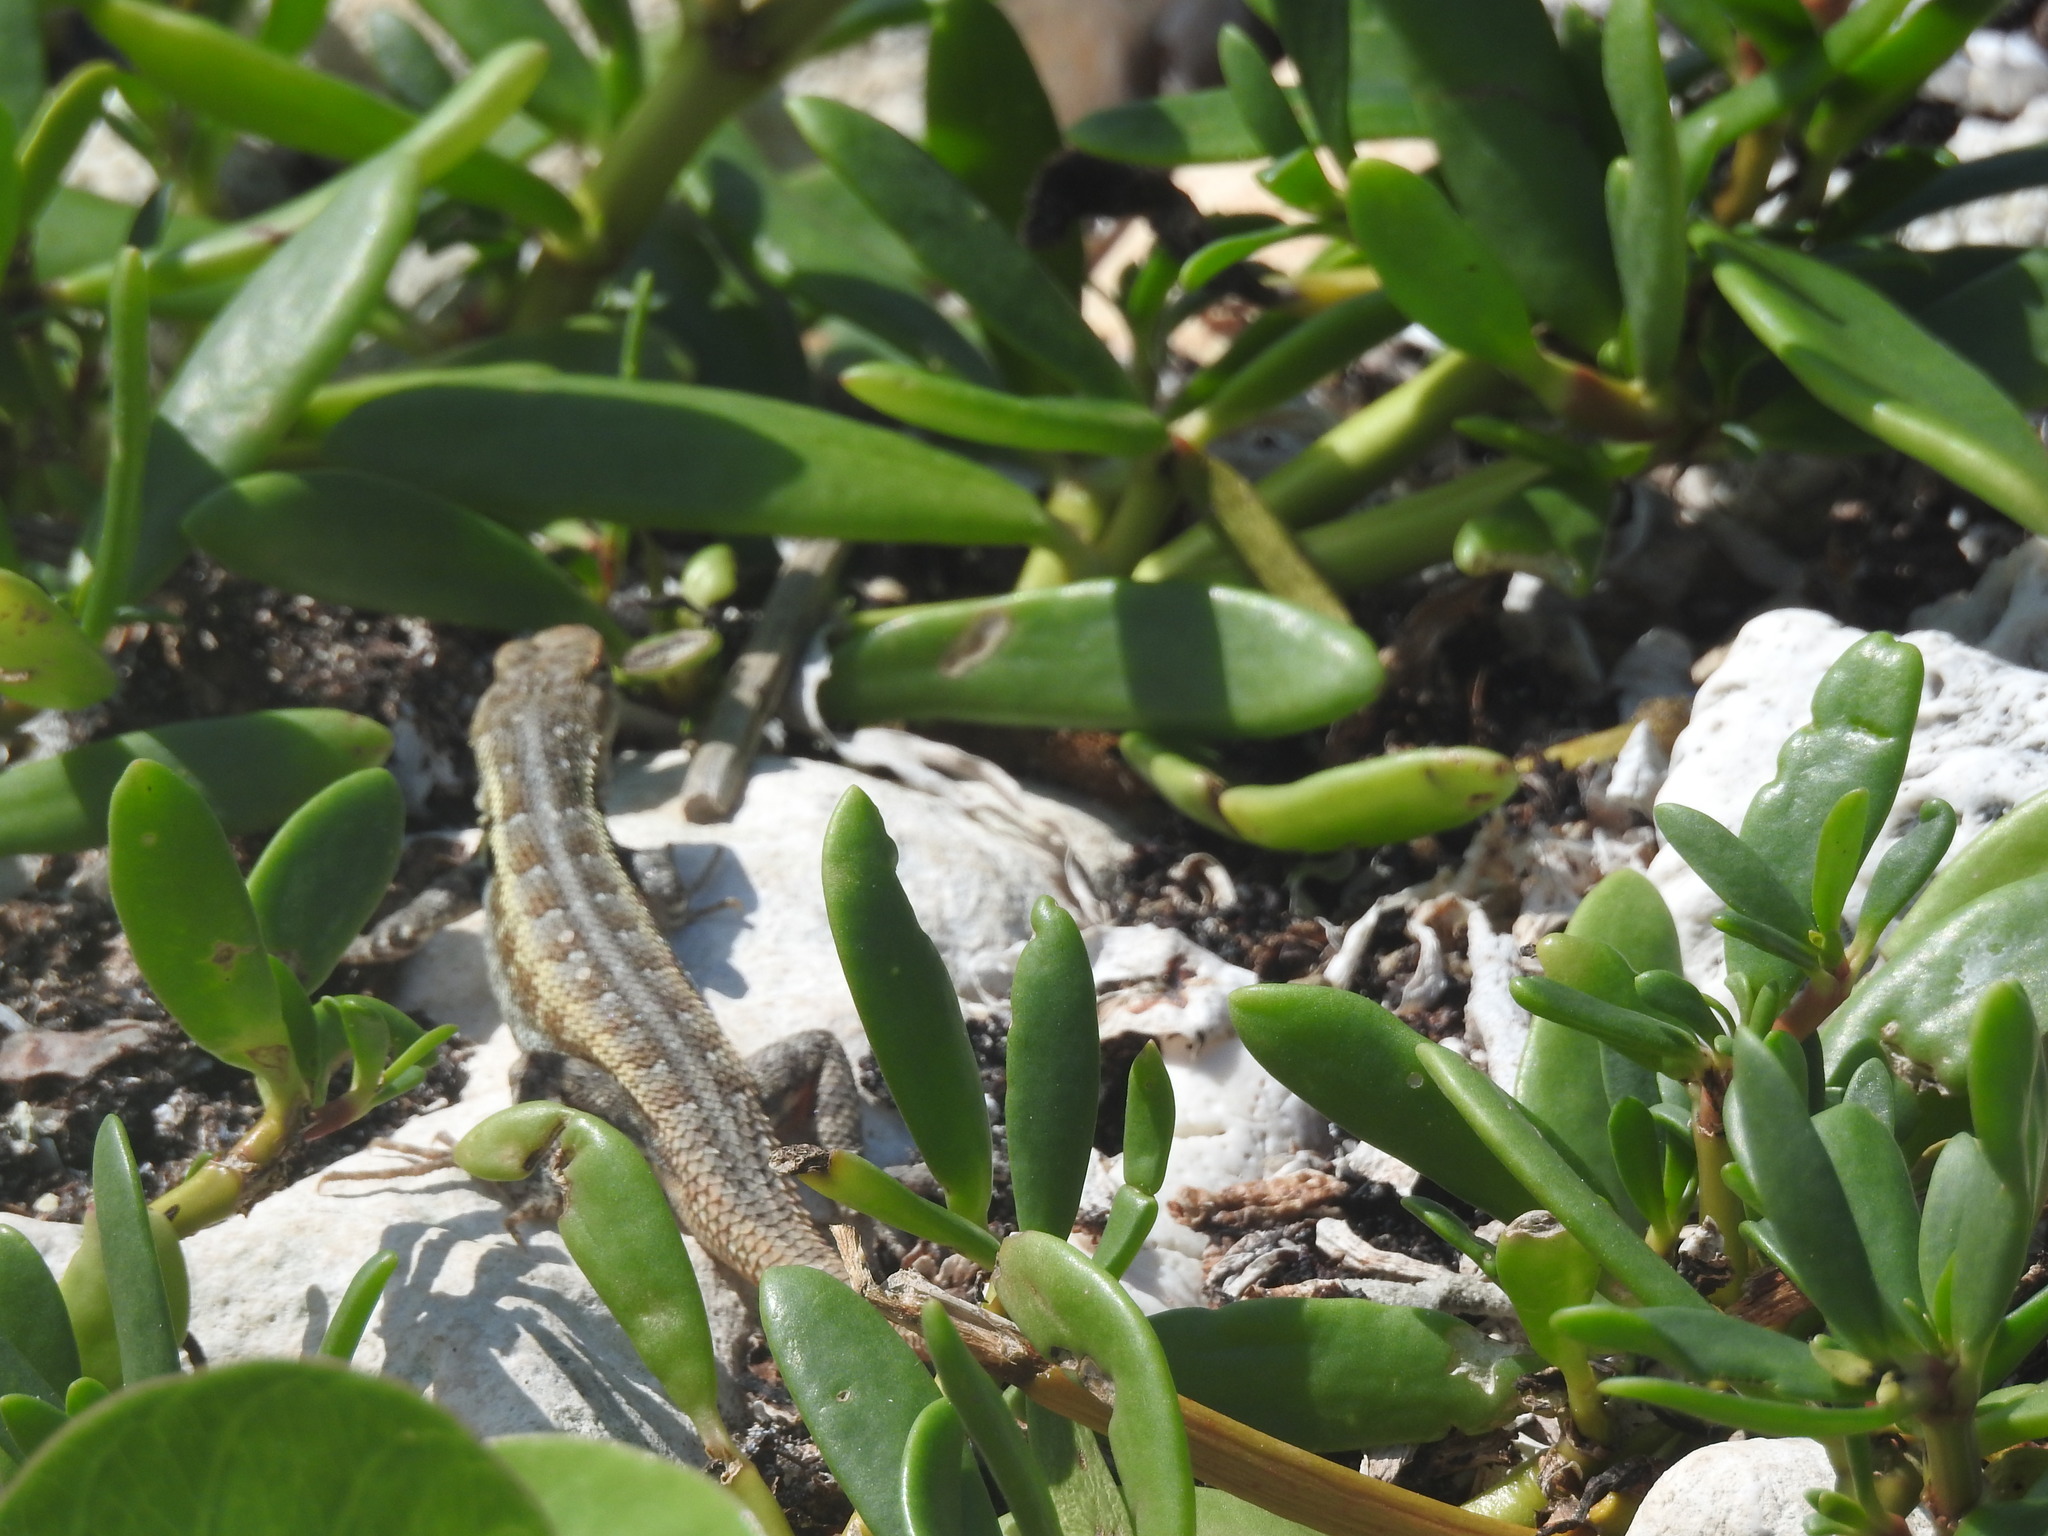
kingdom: Animalia
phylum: Chordata
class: Squamata
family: Phrynosomatidae
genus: Sceloporus
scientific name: Sceloporus cozumelae
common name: Cozumel spiny lizard
